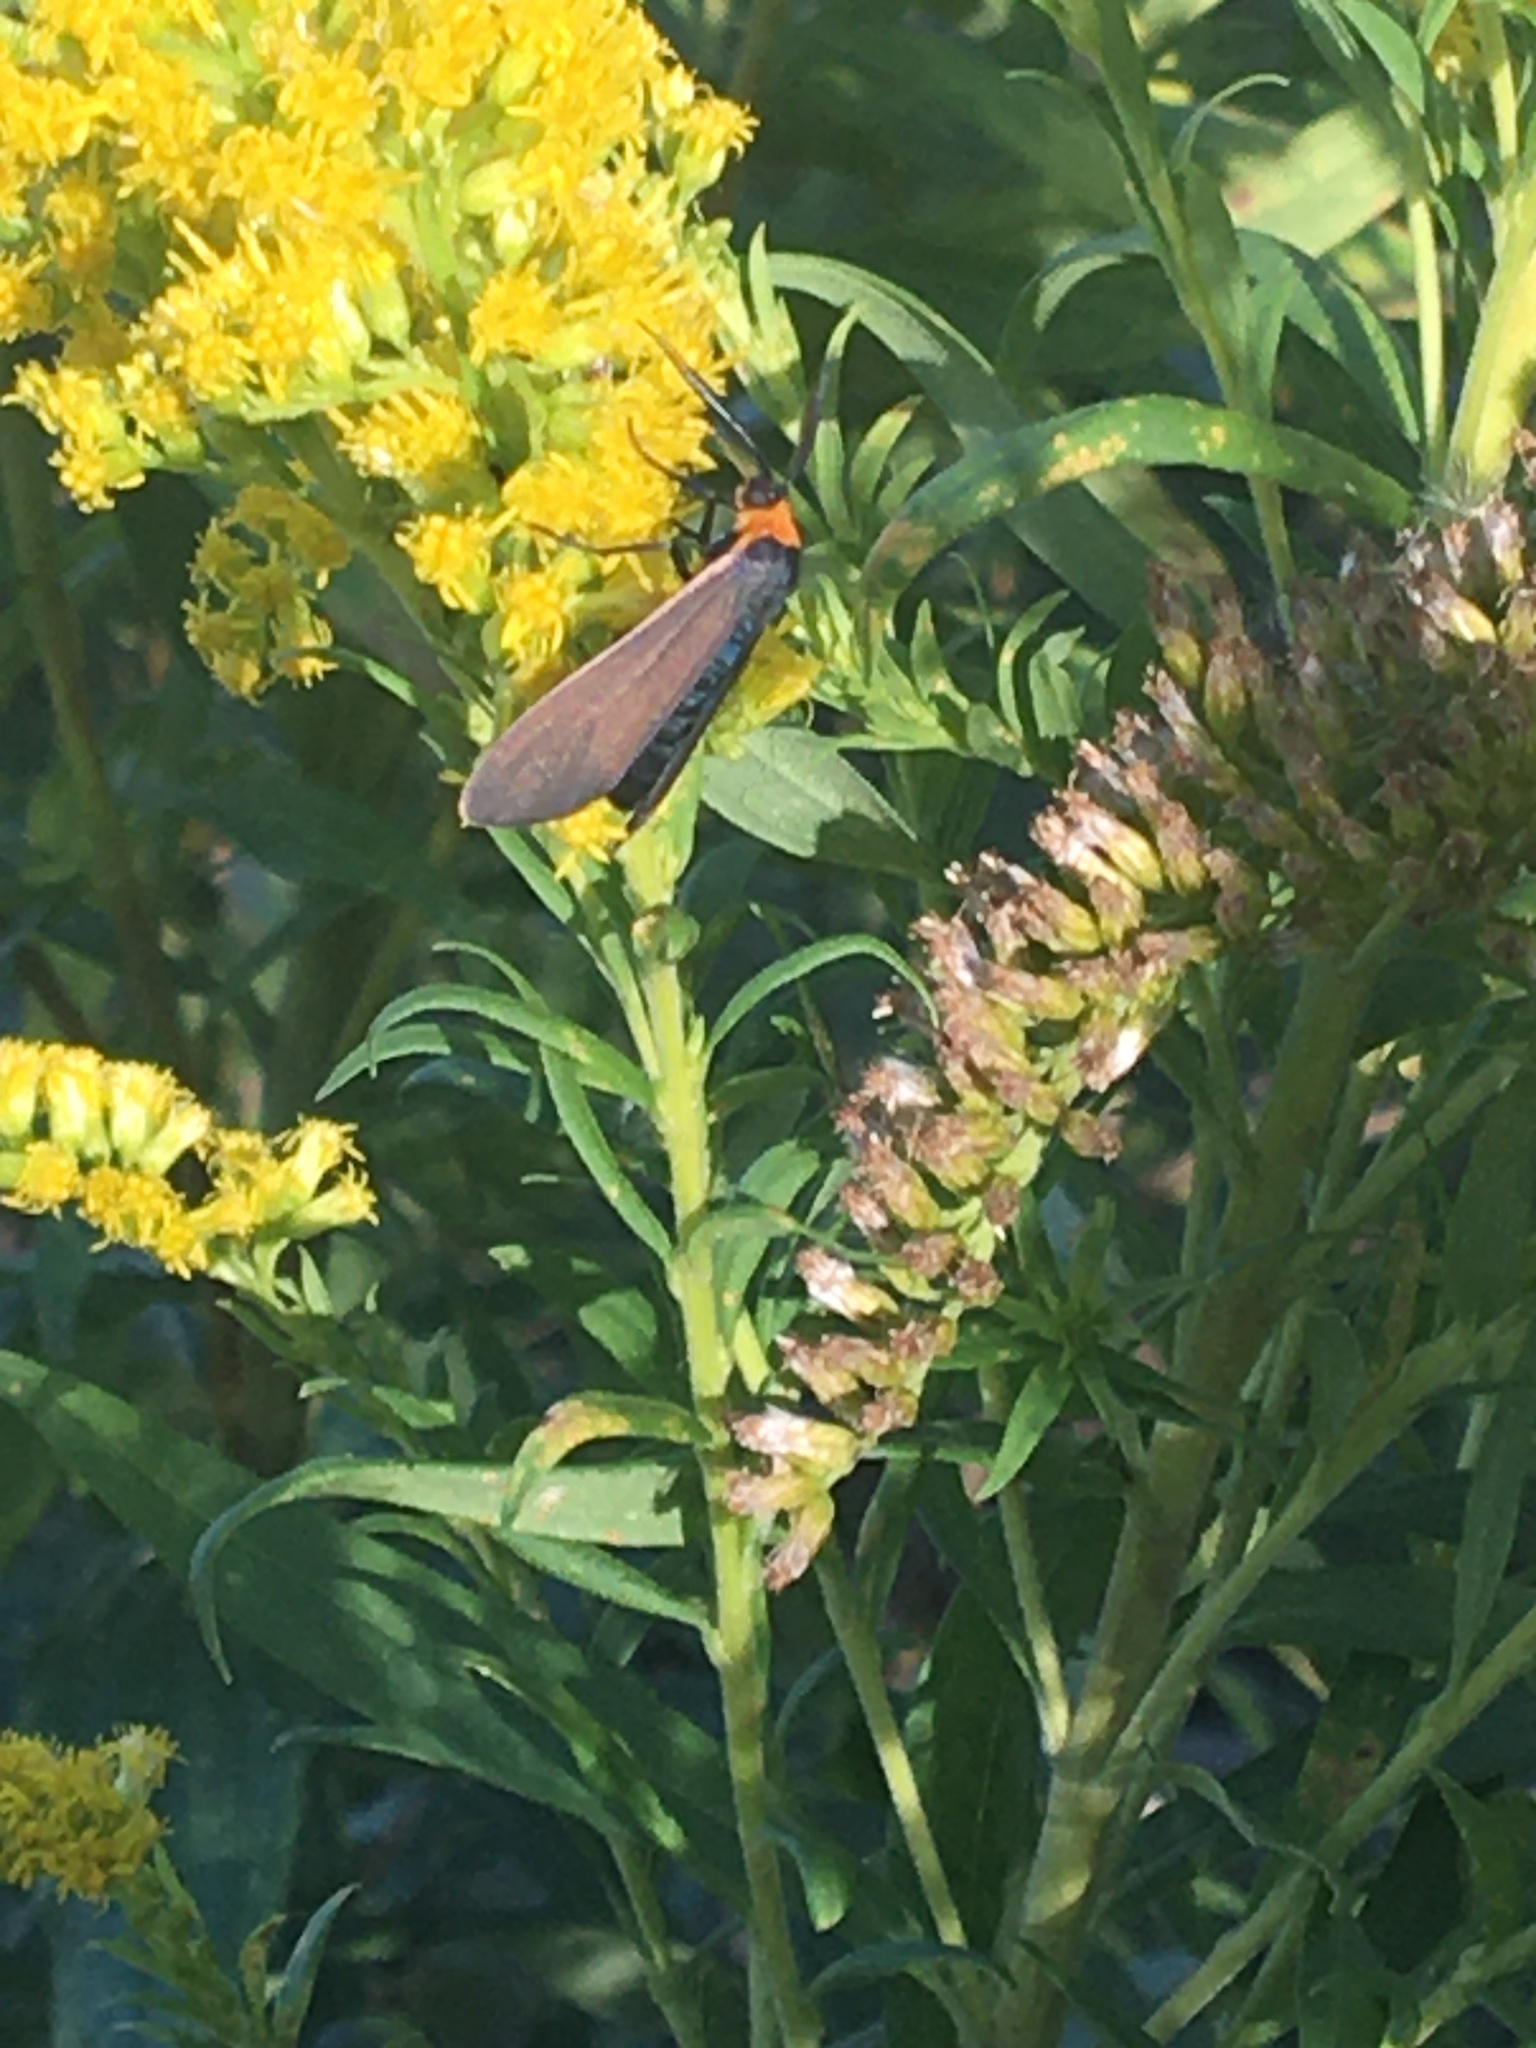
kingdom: Animalia
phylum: Arthropoda
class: Insecta
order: Lepidoptera
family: Erebidae
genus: Cisseps
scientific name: Cisseps fulvicollis
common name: Yellow-collared scape moth
